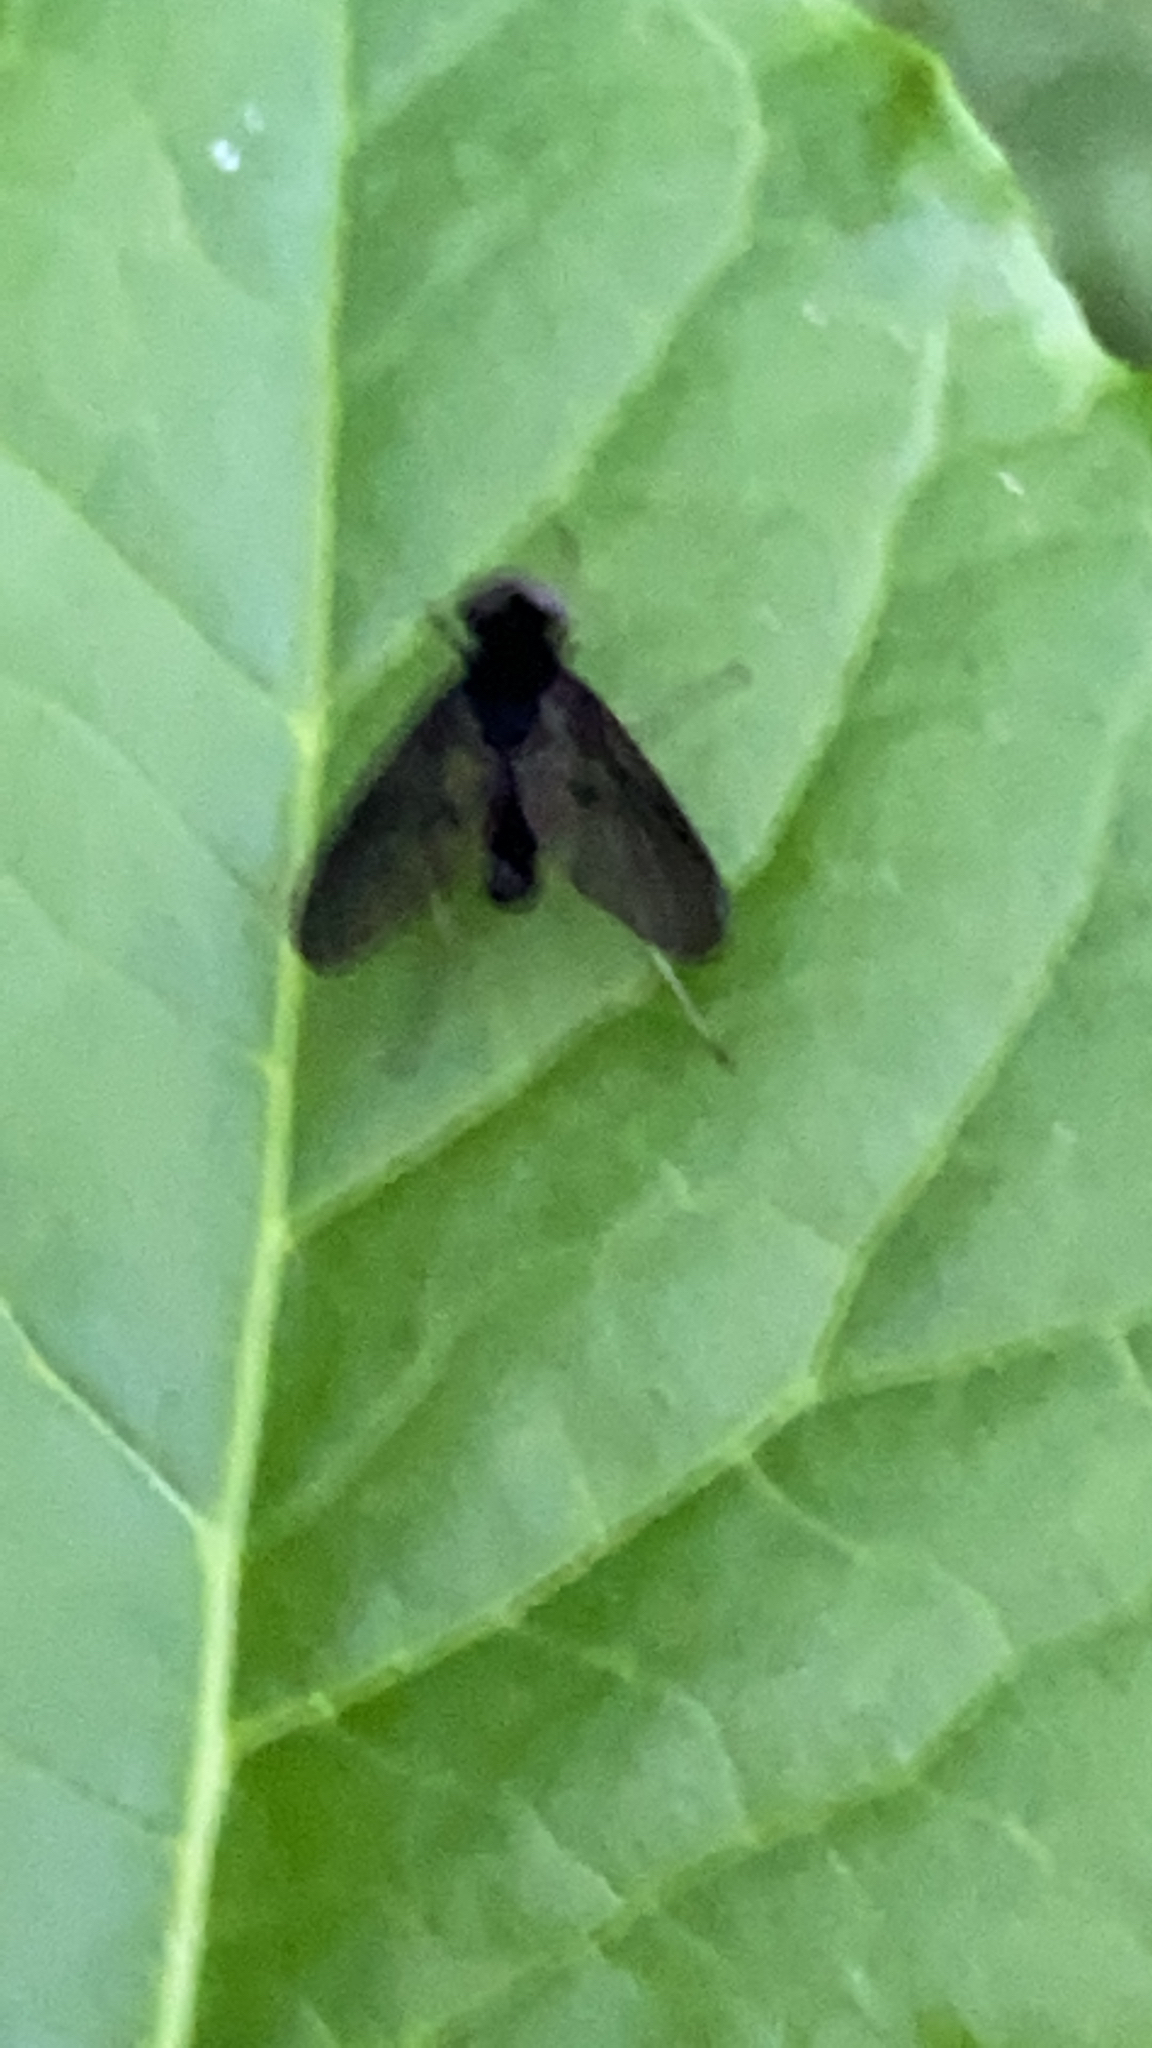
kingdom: Animalia
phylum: Arthropoda
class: Insecta
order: Diptera
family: Rhagionidae
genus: Chrysopilus
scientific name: Chrysopilus velutinus
